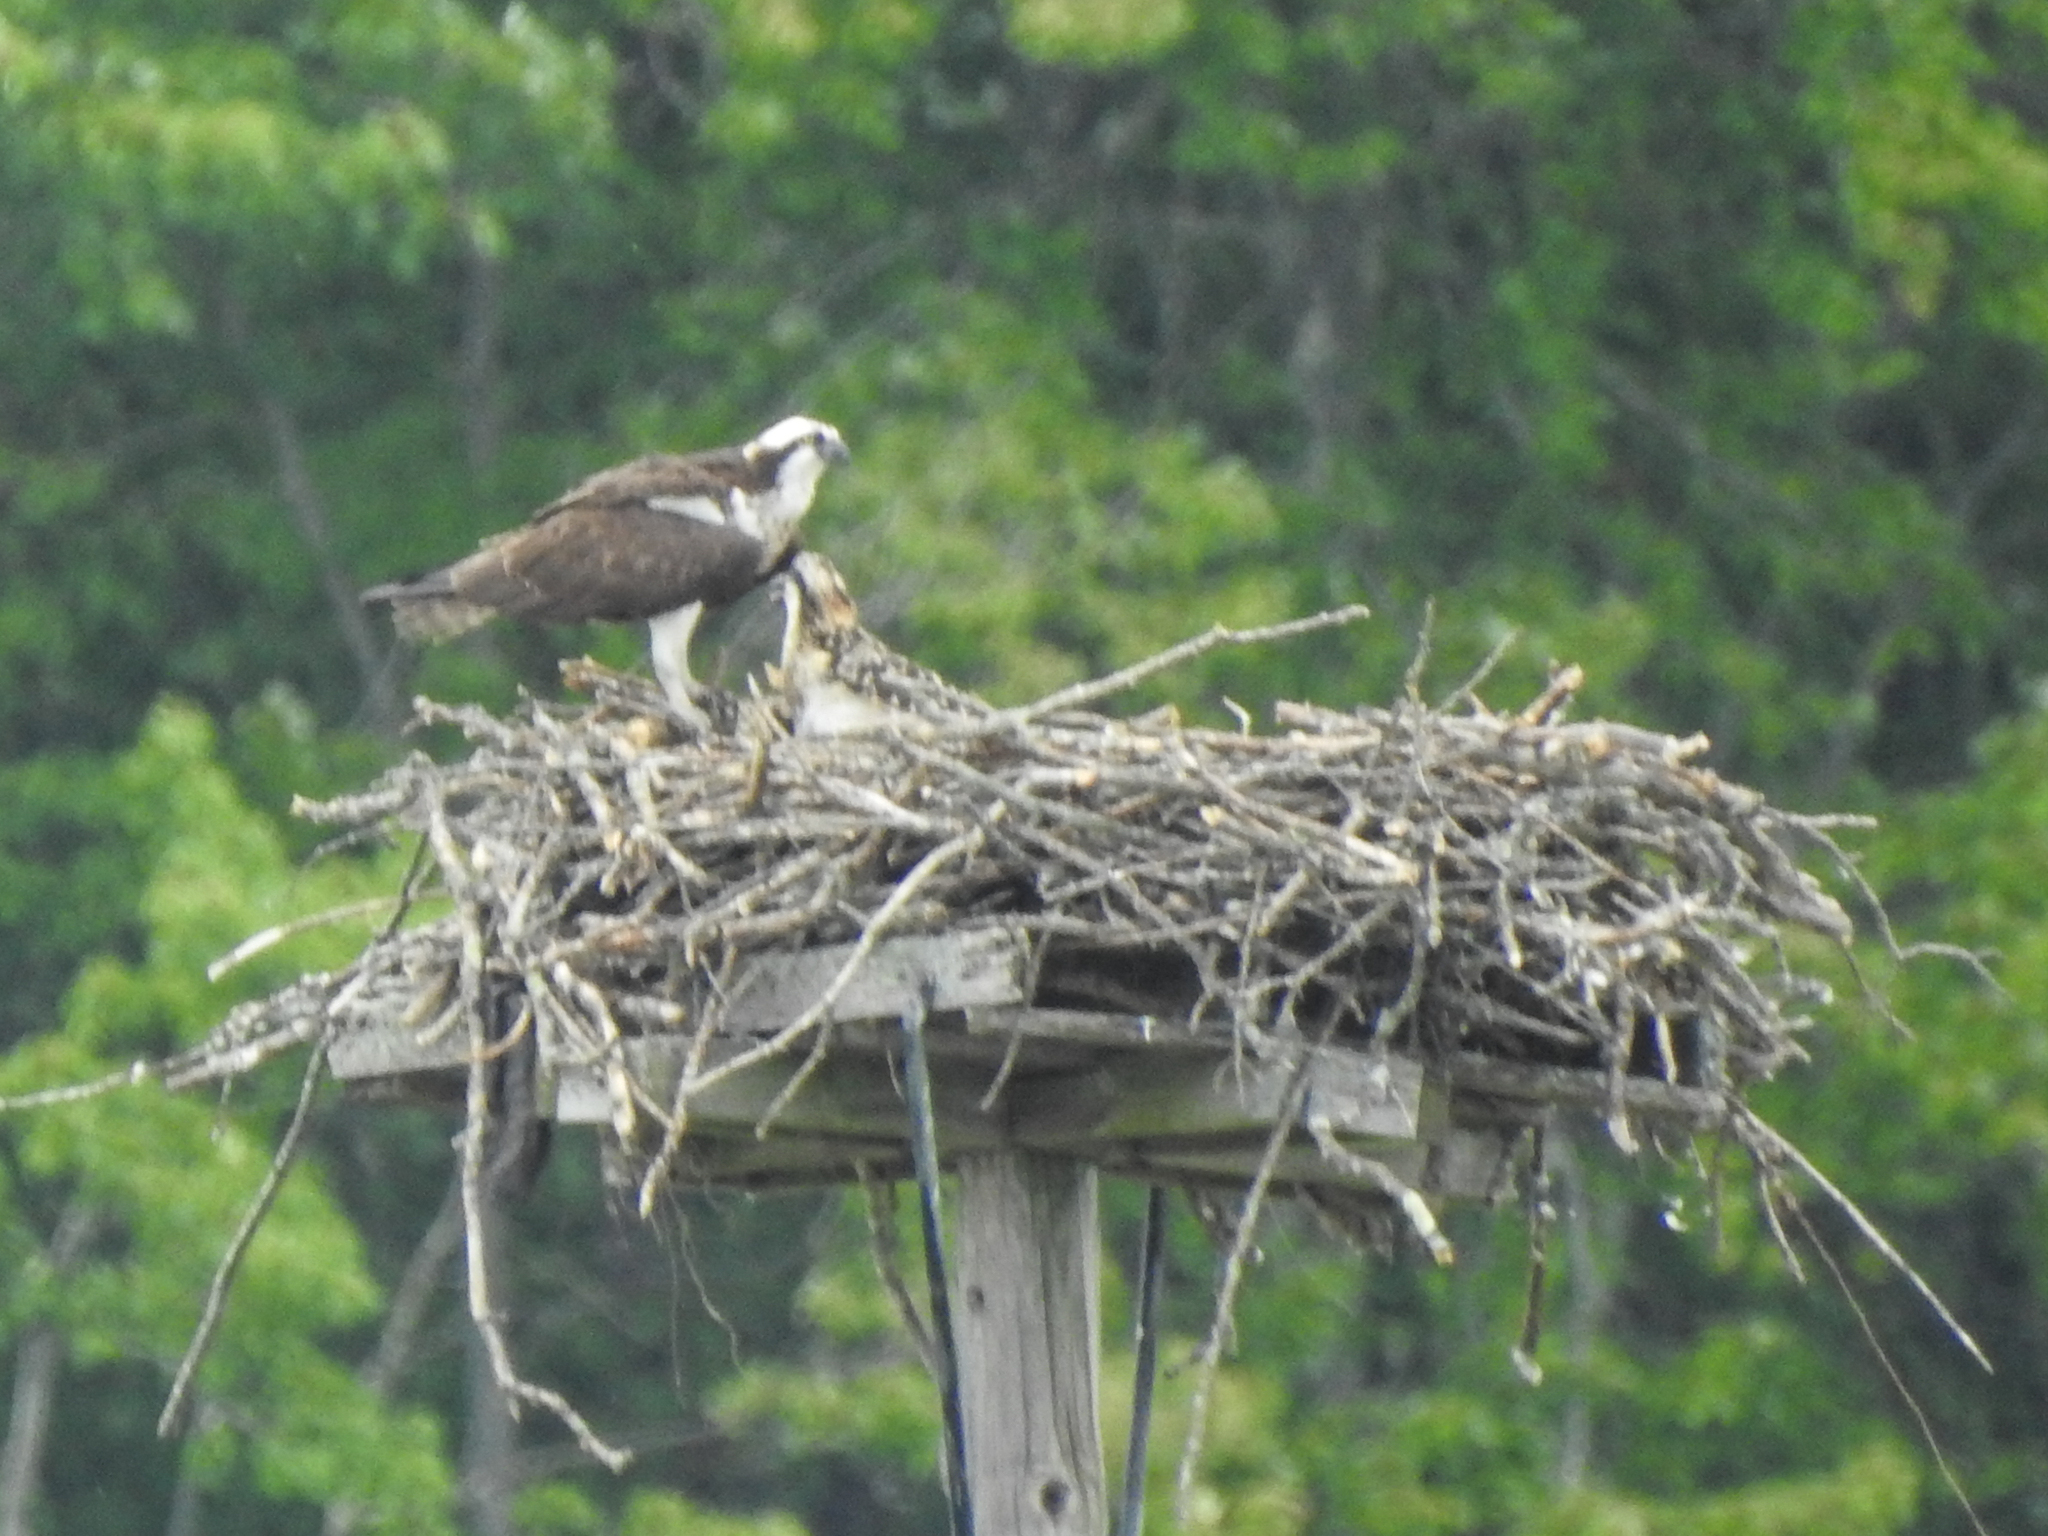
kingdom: Animalia
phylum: Chordata
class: Aves
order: Accipitriformes
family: Pandionidae
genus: Pandion
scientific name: Pandion haliaetus
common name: Osprey
